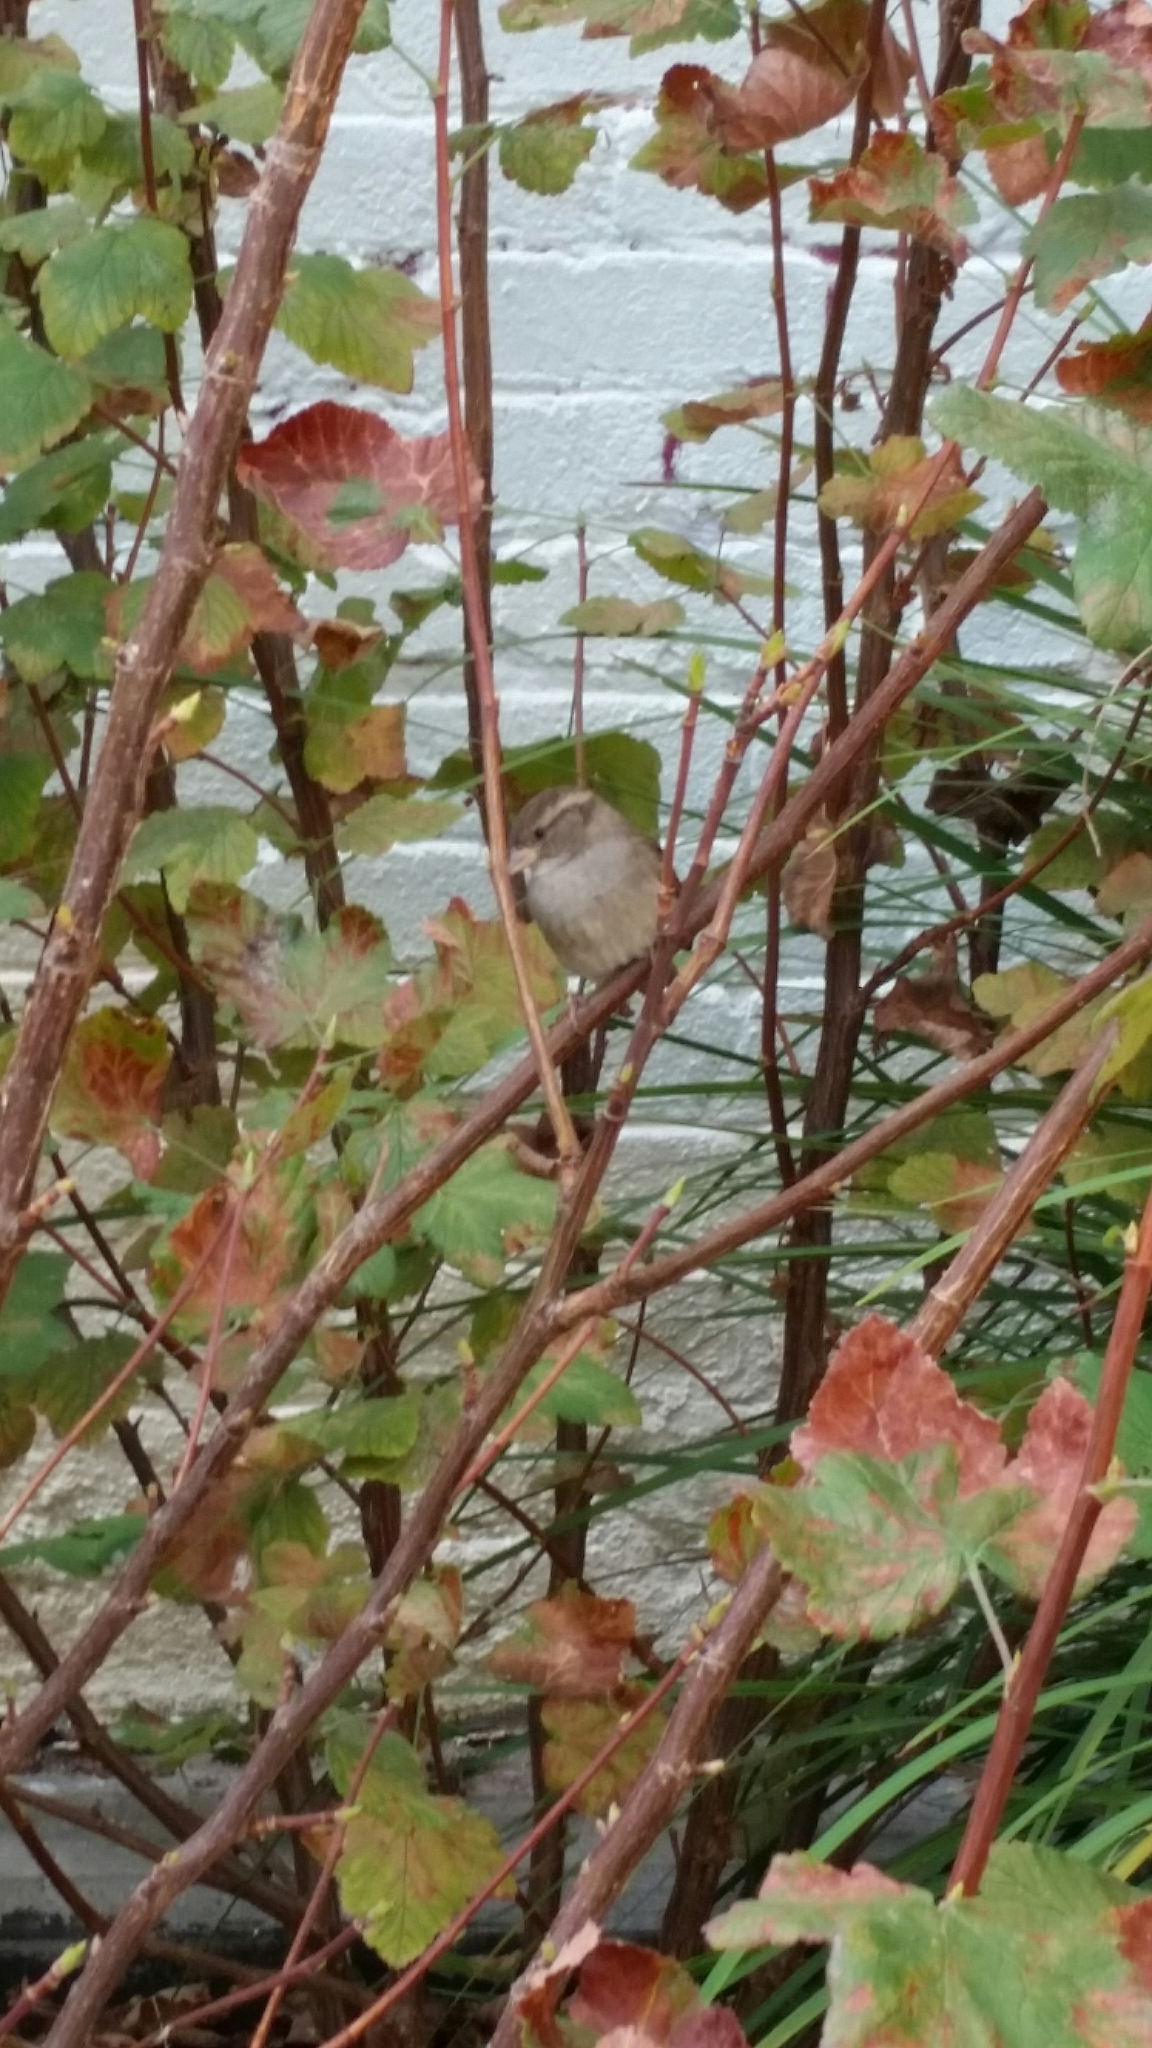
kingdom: Animalia
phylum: Chordata
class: Aves
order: Passeriformes
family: Passeridae
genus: Passer
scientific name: Passer domesticus
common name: House sparrow
